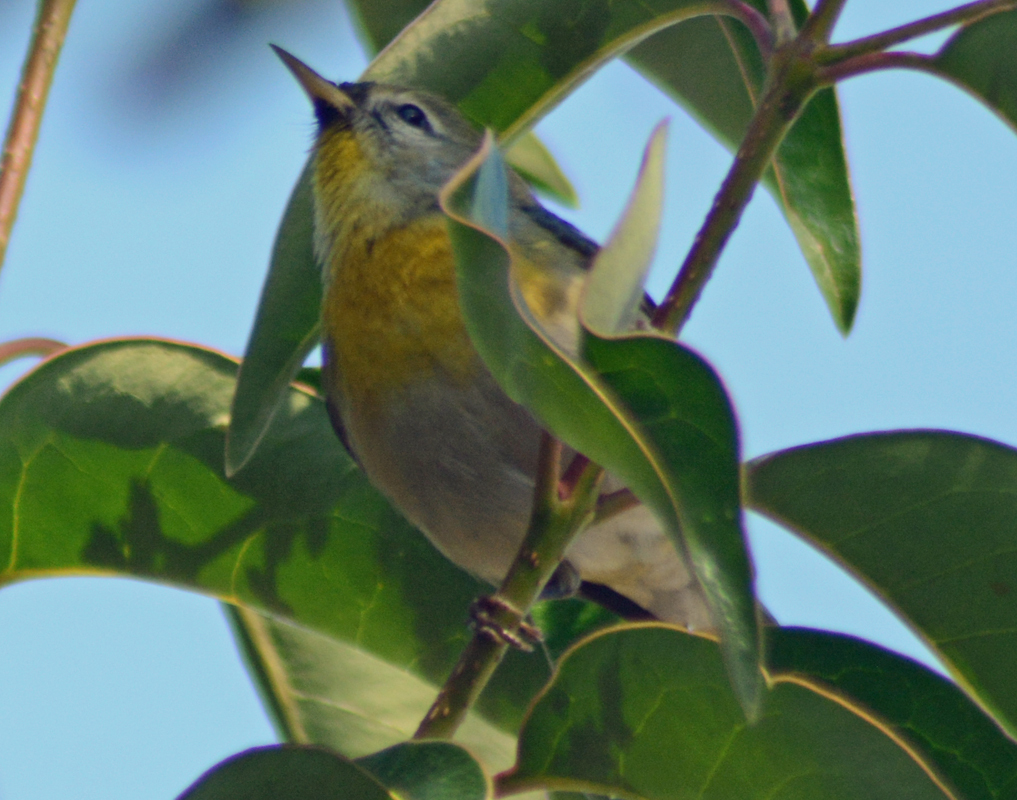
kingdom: Animalia
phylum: Chordata
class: Aves
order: Passeriformes
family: Parulidae
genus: Setophaga
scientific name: Setophaga americana
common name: Northern parula
